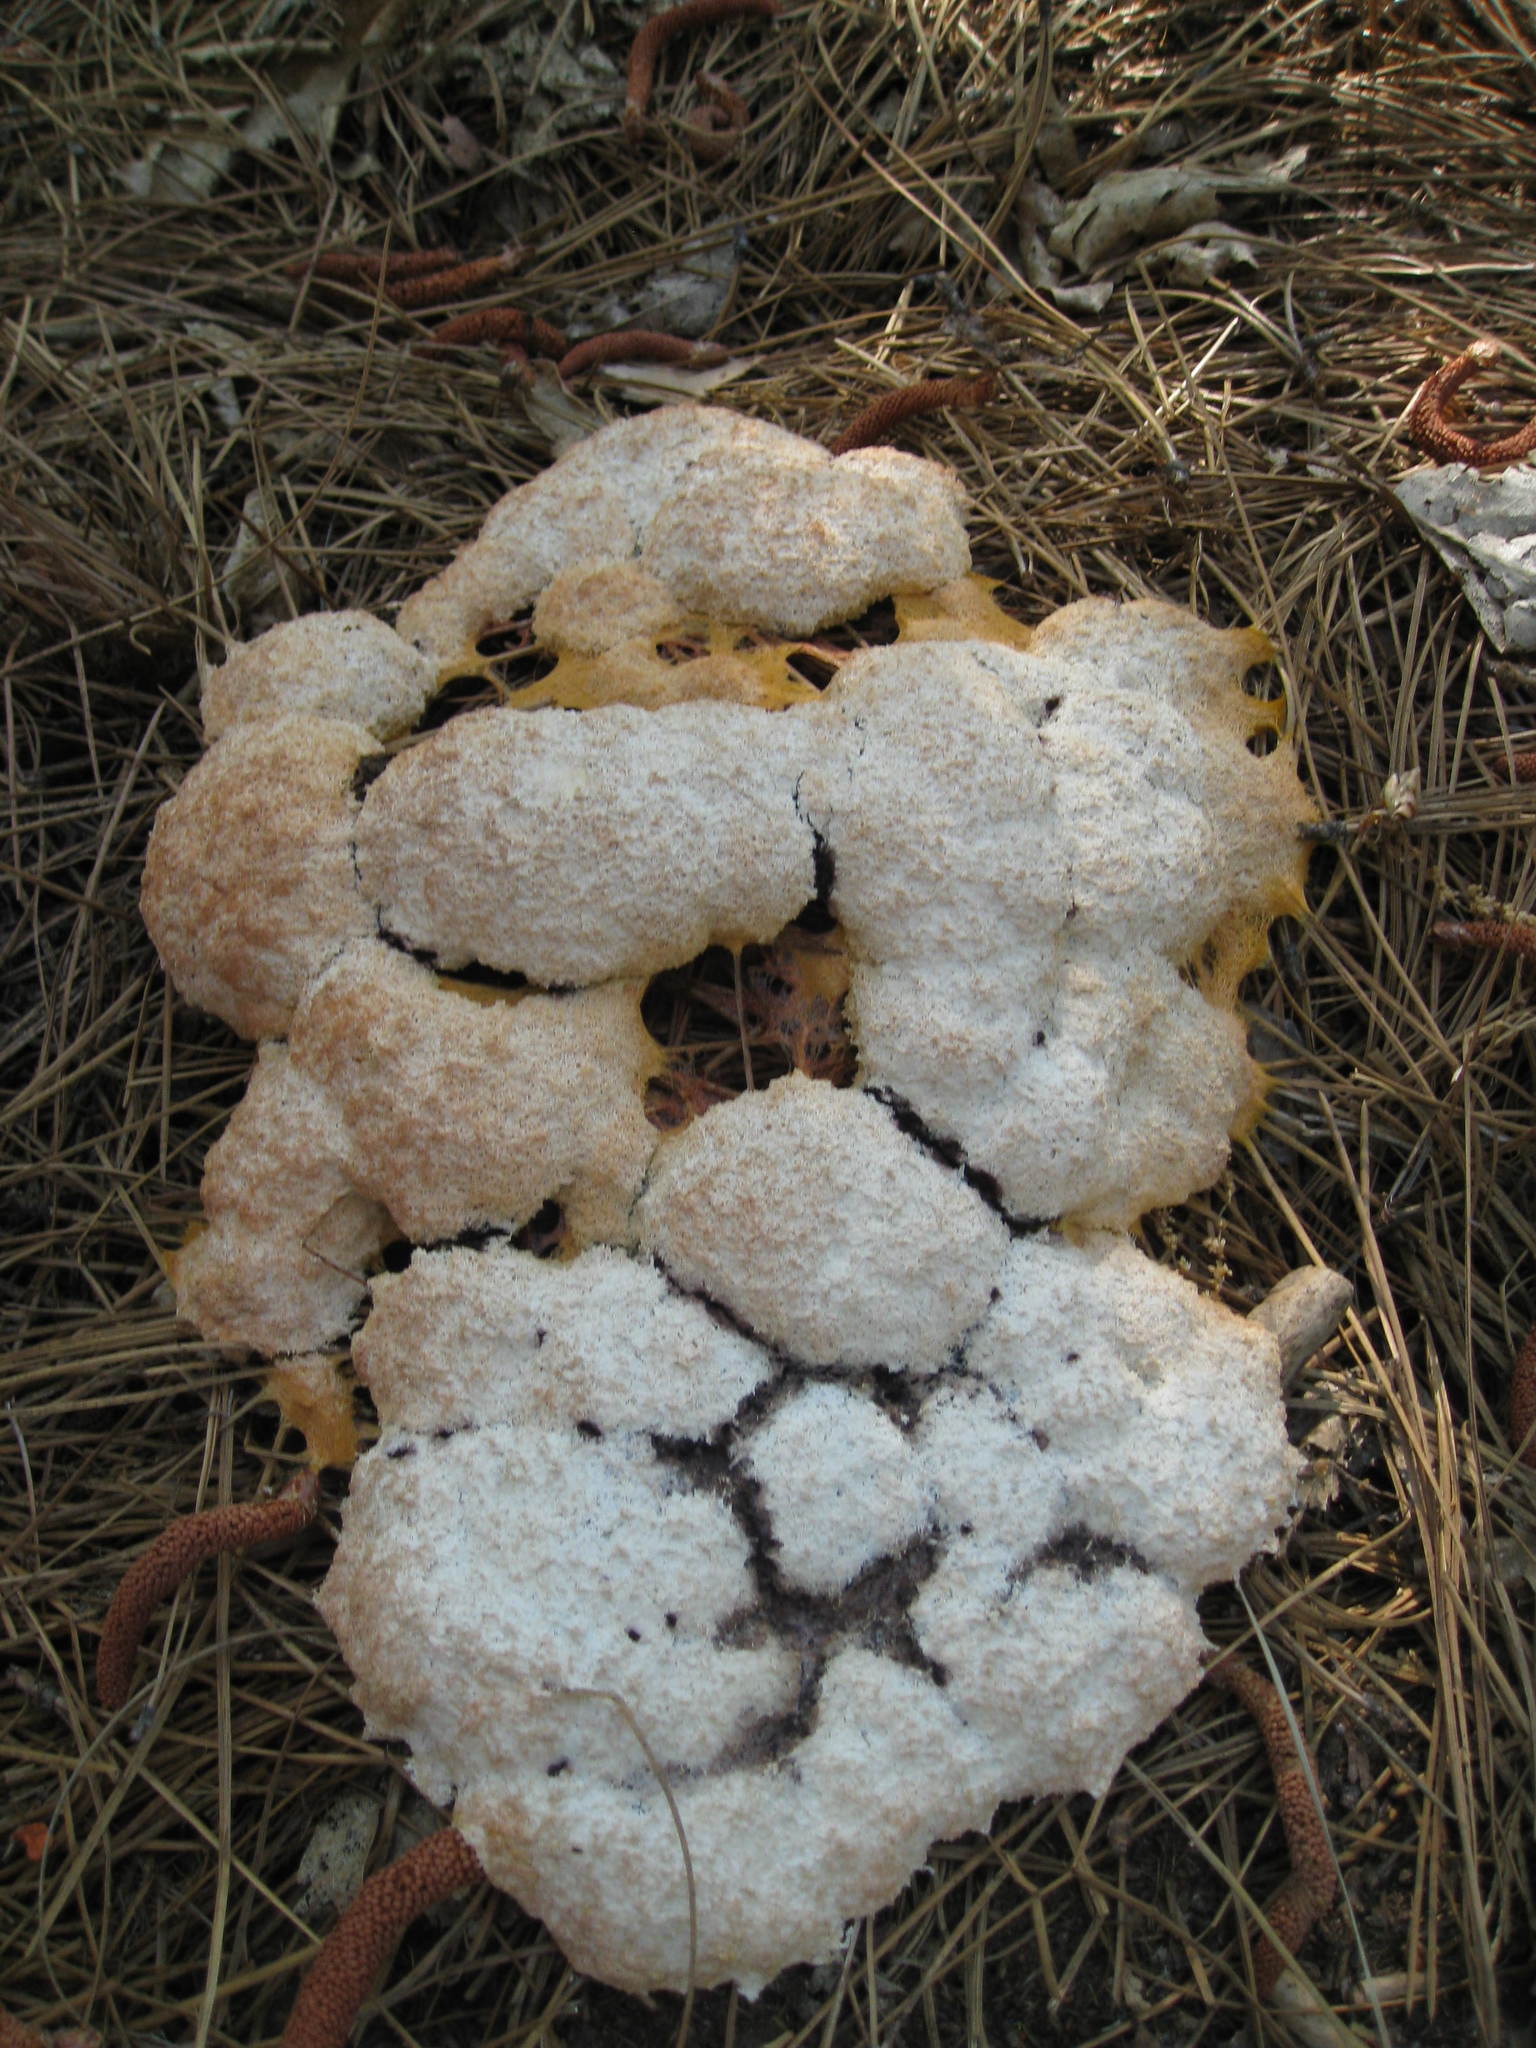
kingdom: Protozoa
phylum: Mycetozoa
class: Myxomycetes
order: Physarales
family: Physaraceae
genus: Fuligo
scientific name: Fuligo septica
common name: Dog vomit slime mold
